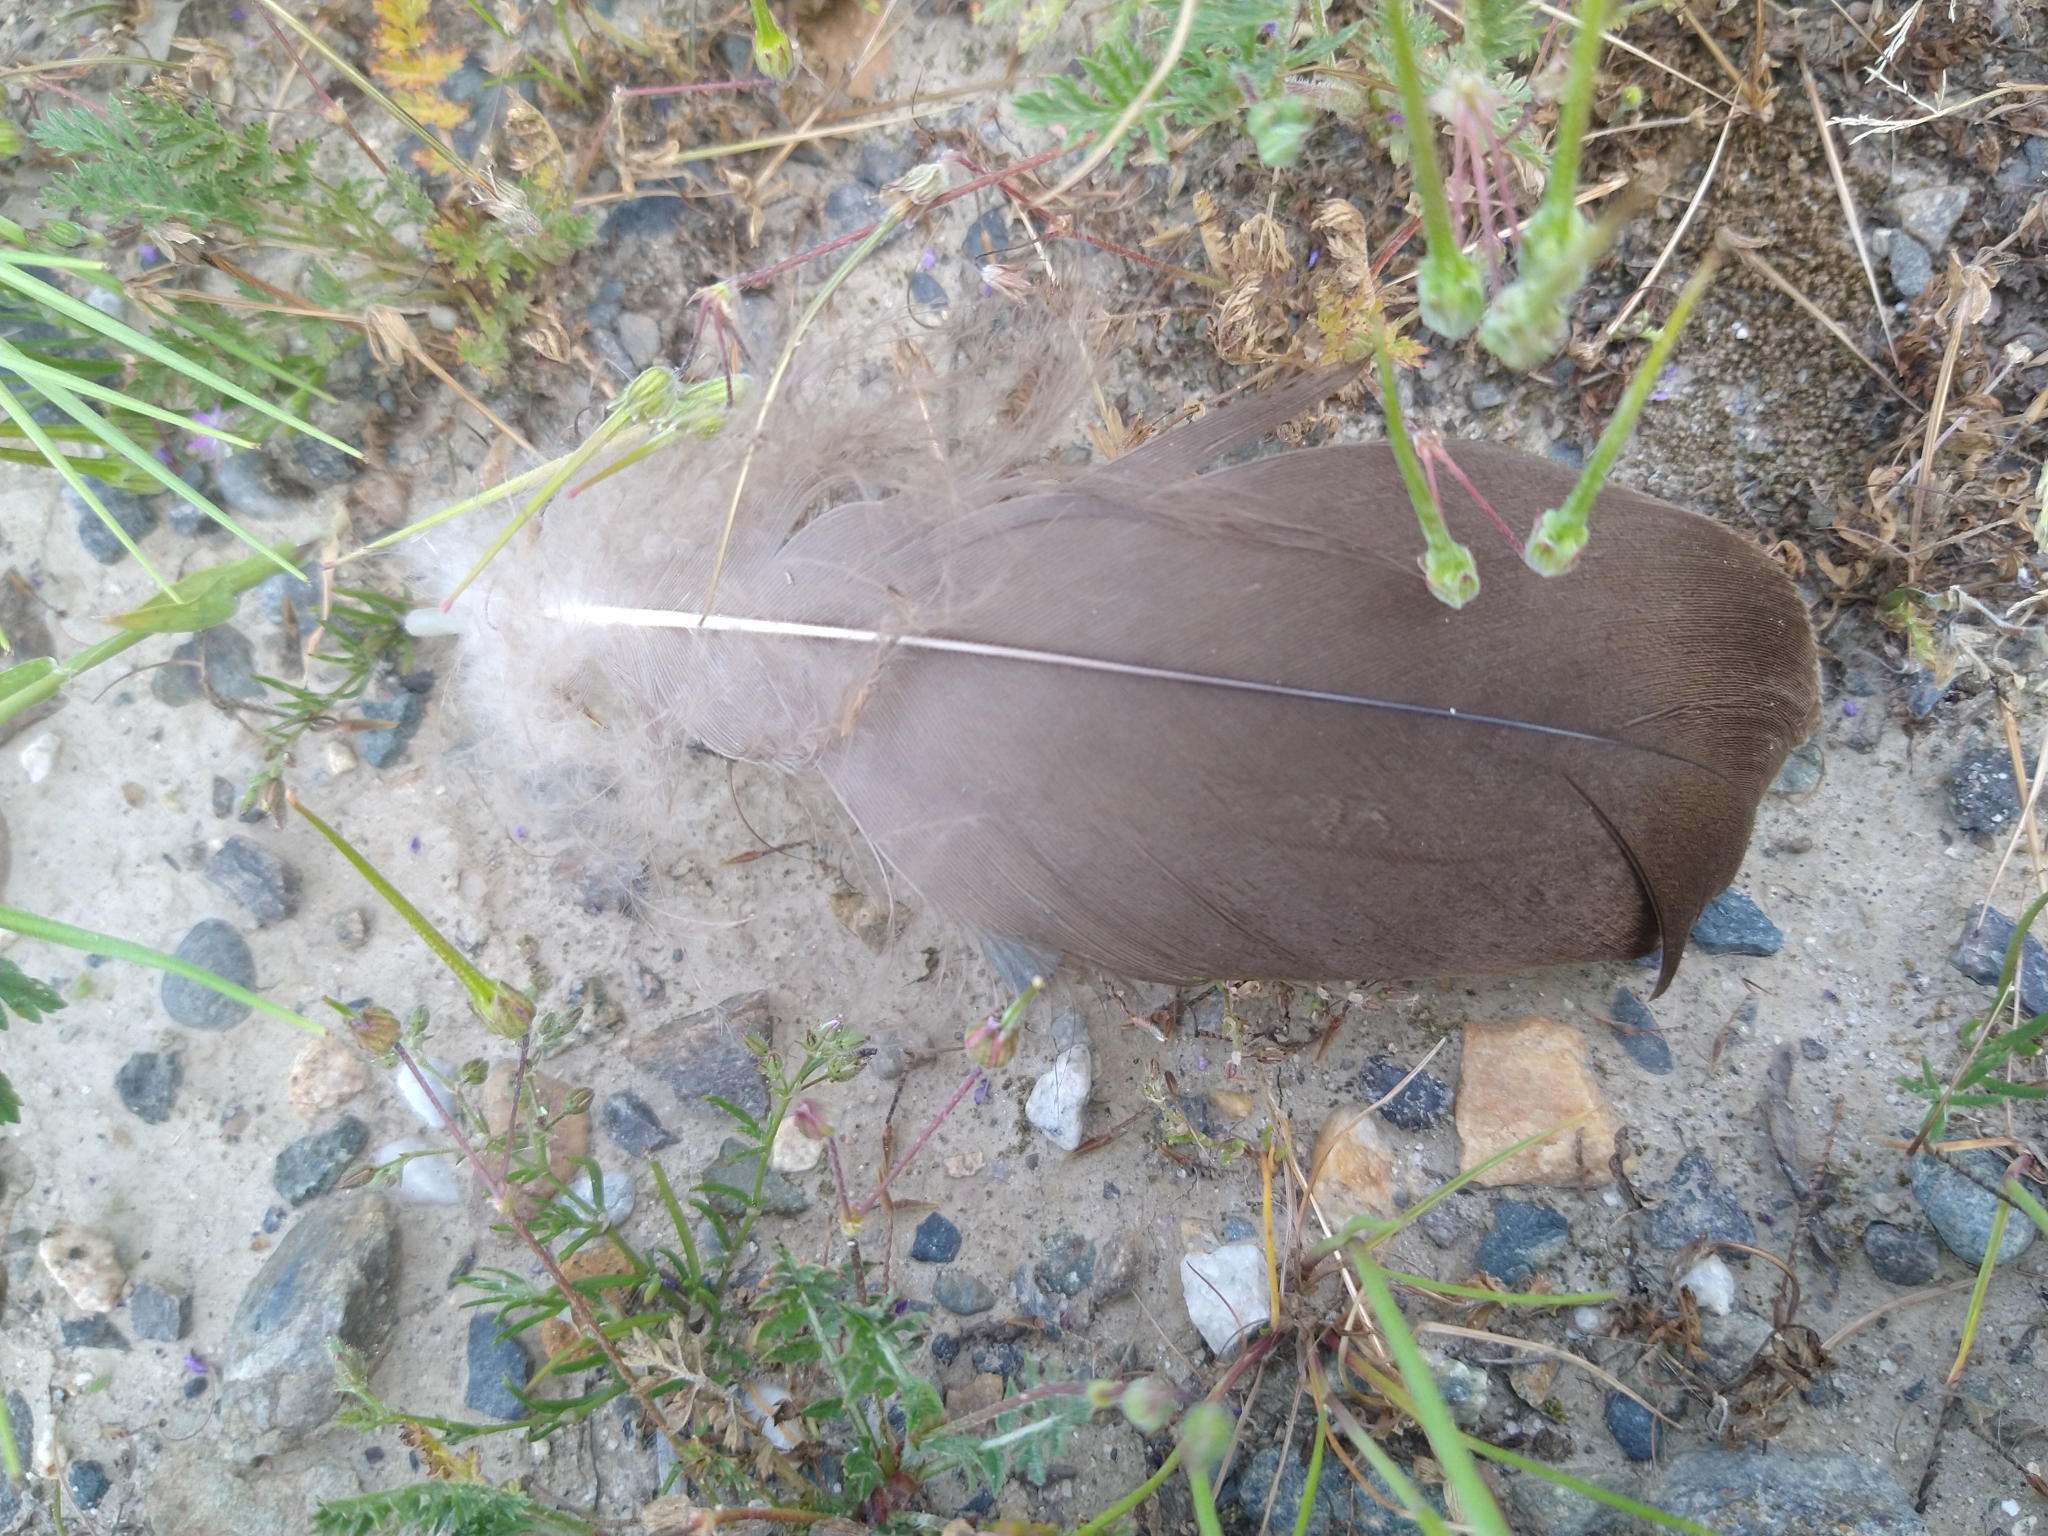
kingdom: Animalia
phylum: Chordata
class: Aves
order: Anseriformes
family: Anatidae
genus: Branta
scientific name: Branta canadensis
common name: Canada goose
